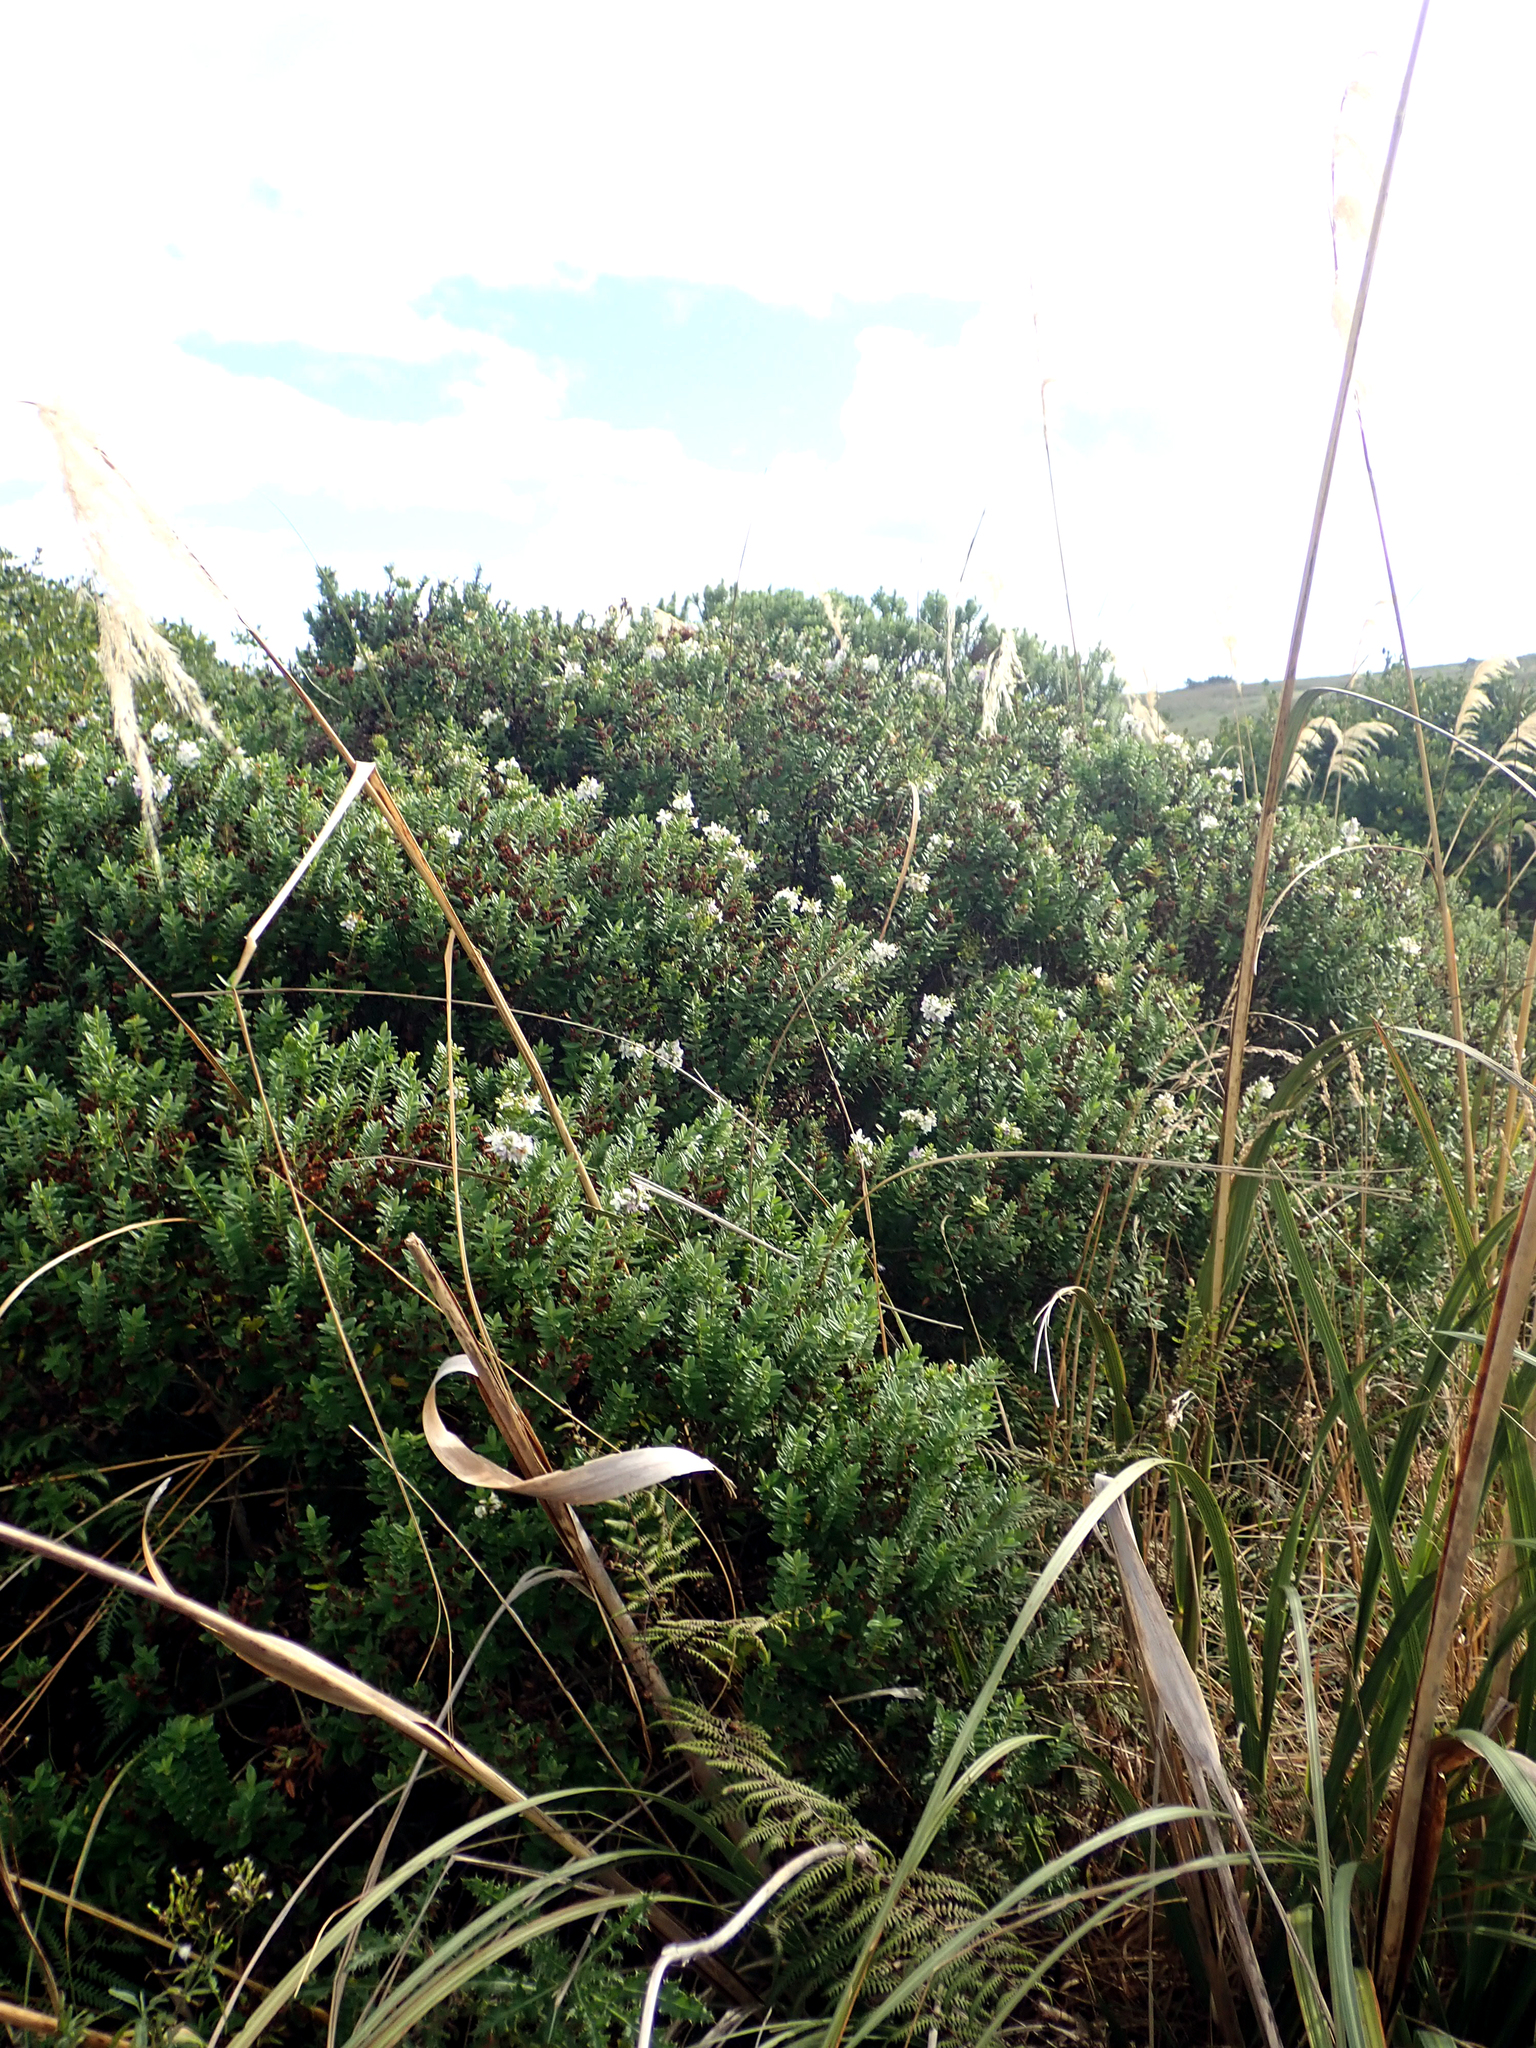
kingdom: Plantae
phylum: Tracheophyta
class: Magnoliopsida
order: Lamiales
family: Plantaginaceae
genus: Veronica
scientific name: Veronica elliptica
